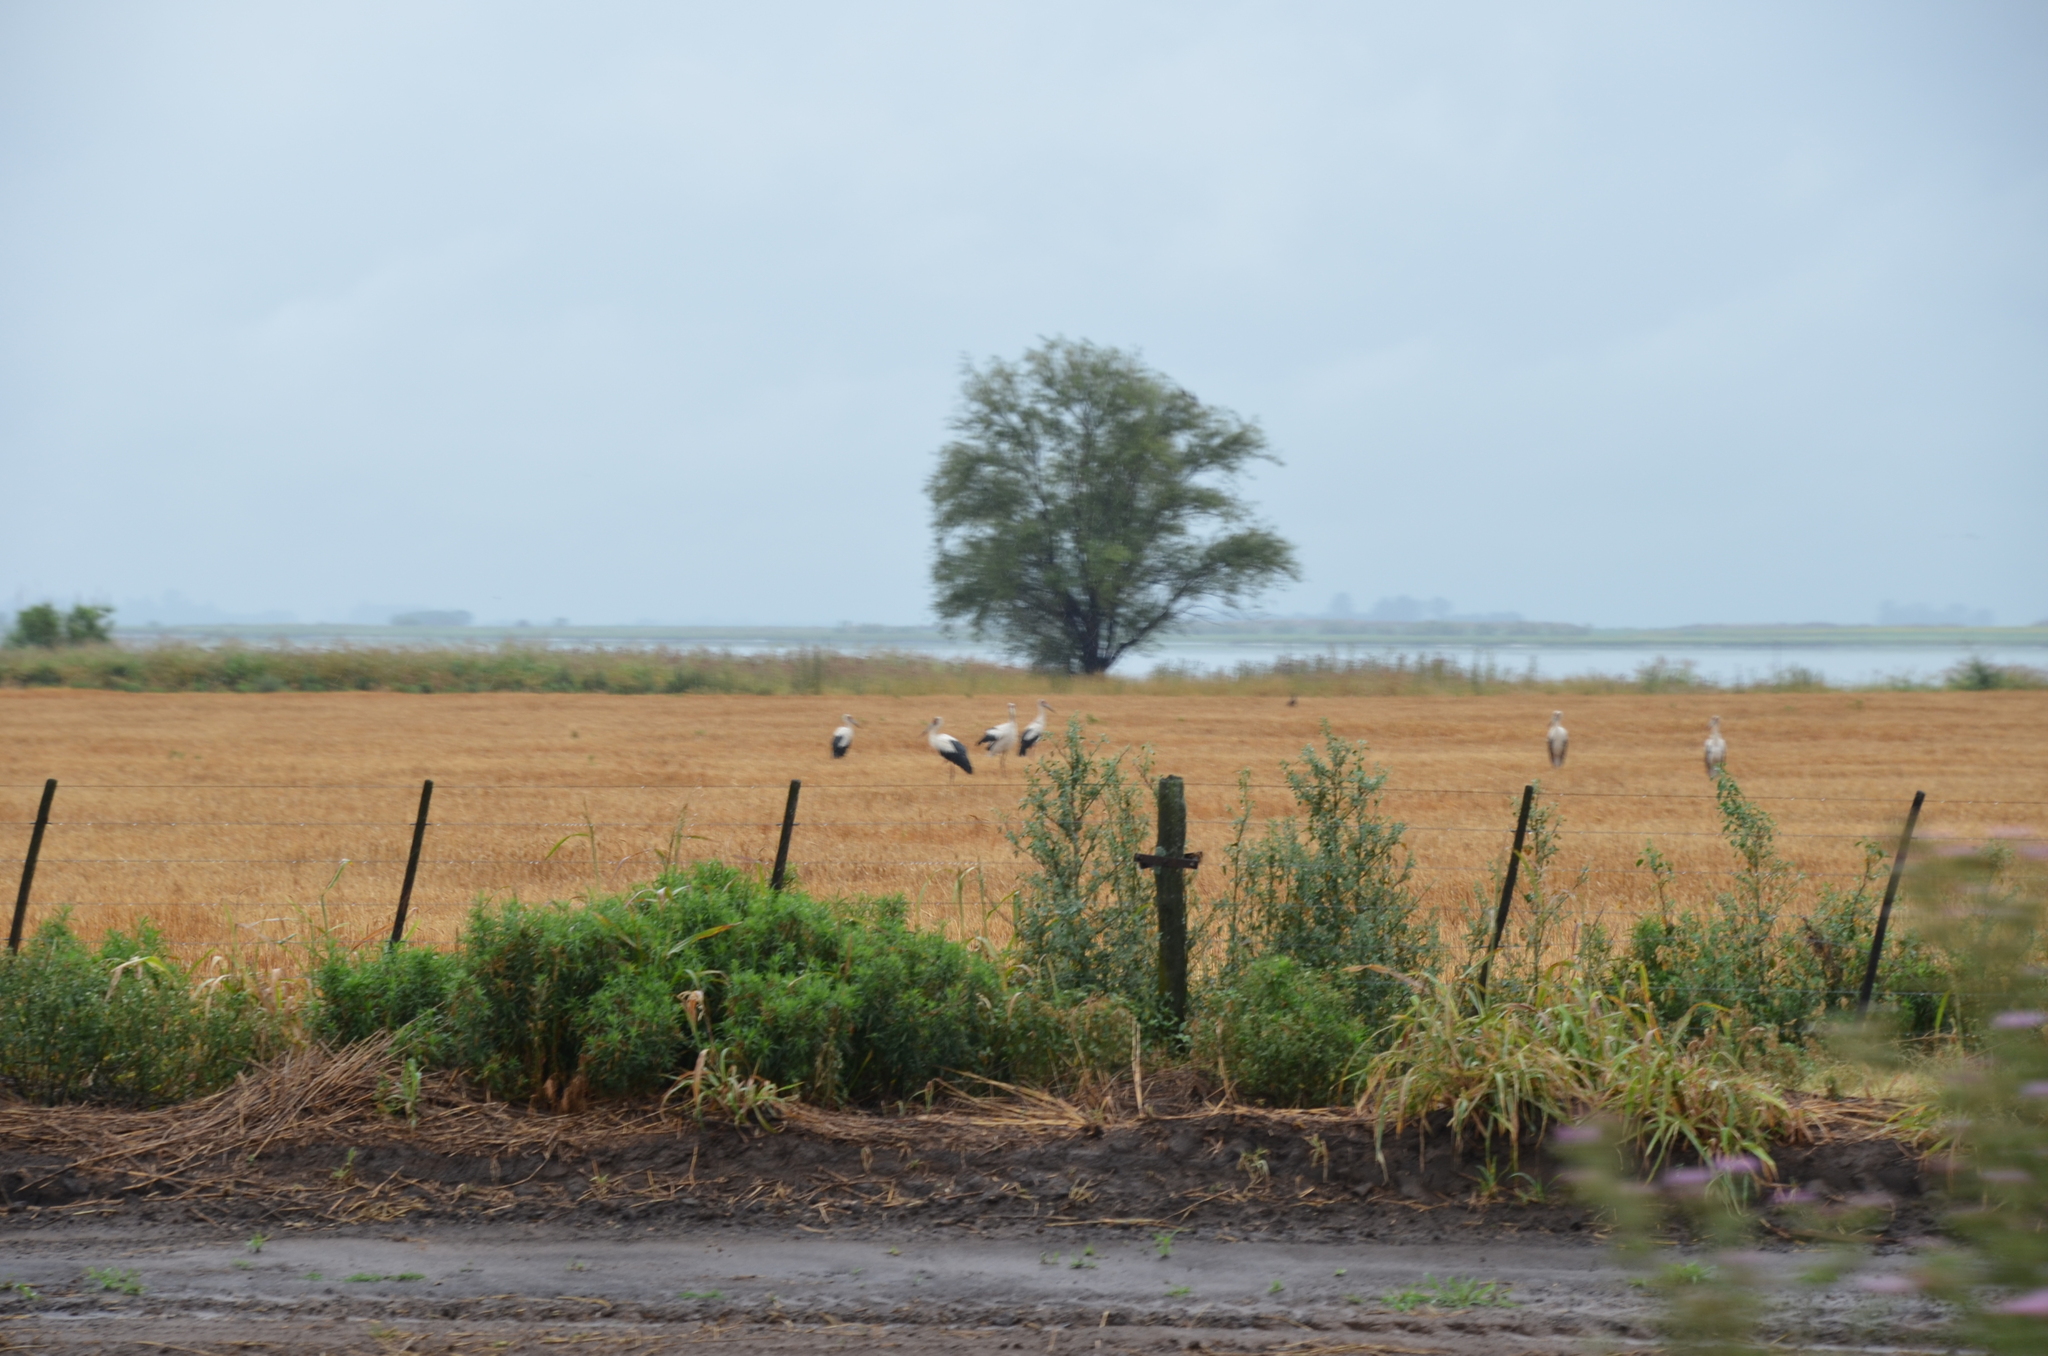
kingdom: Animalia
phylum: Chordata
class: Aves
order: Ciconiiformes
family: Ciconiidae
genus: Ciconia
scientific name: Ciconia maguari
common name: Maguari stork
